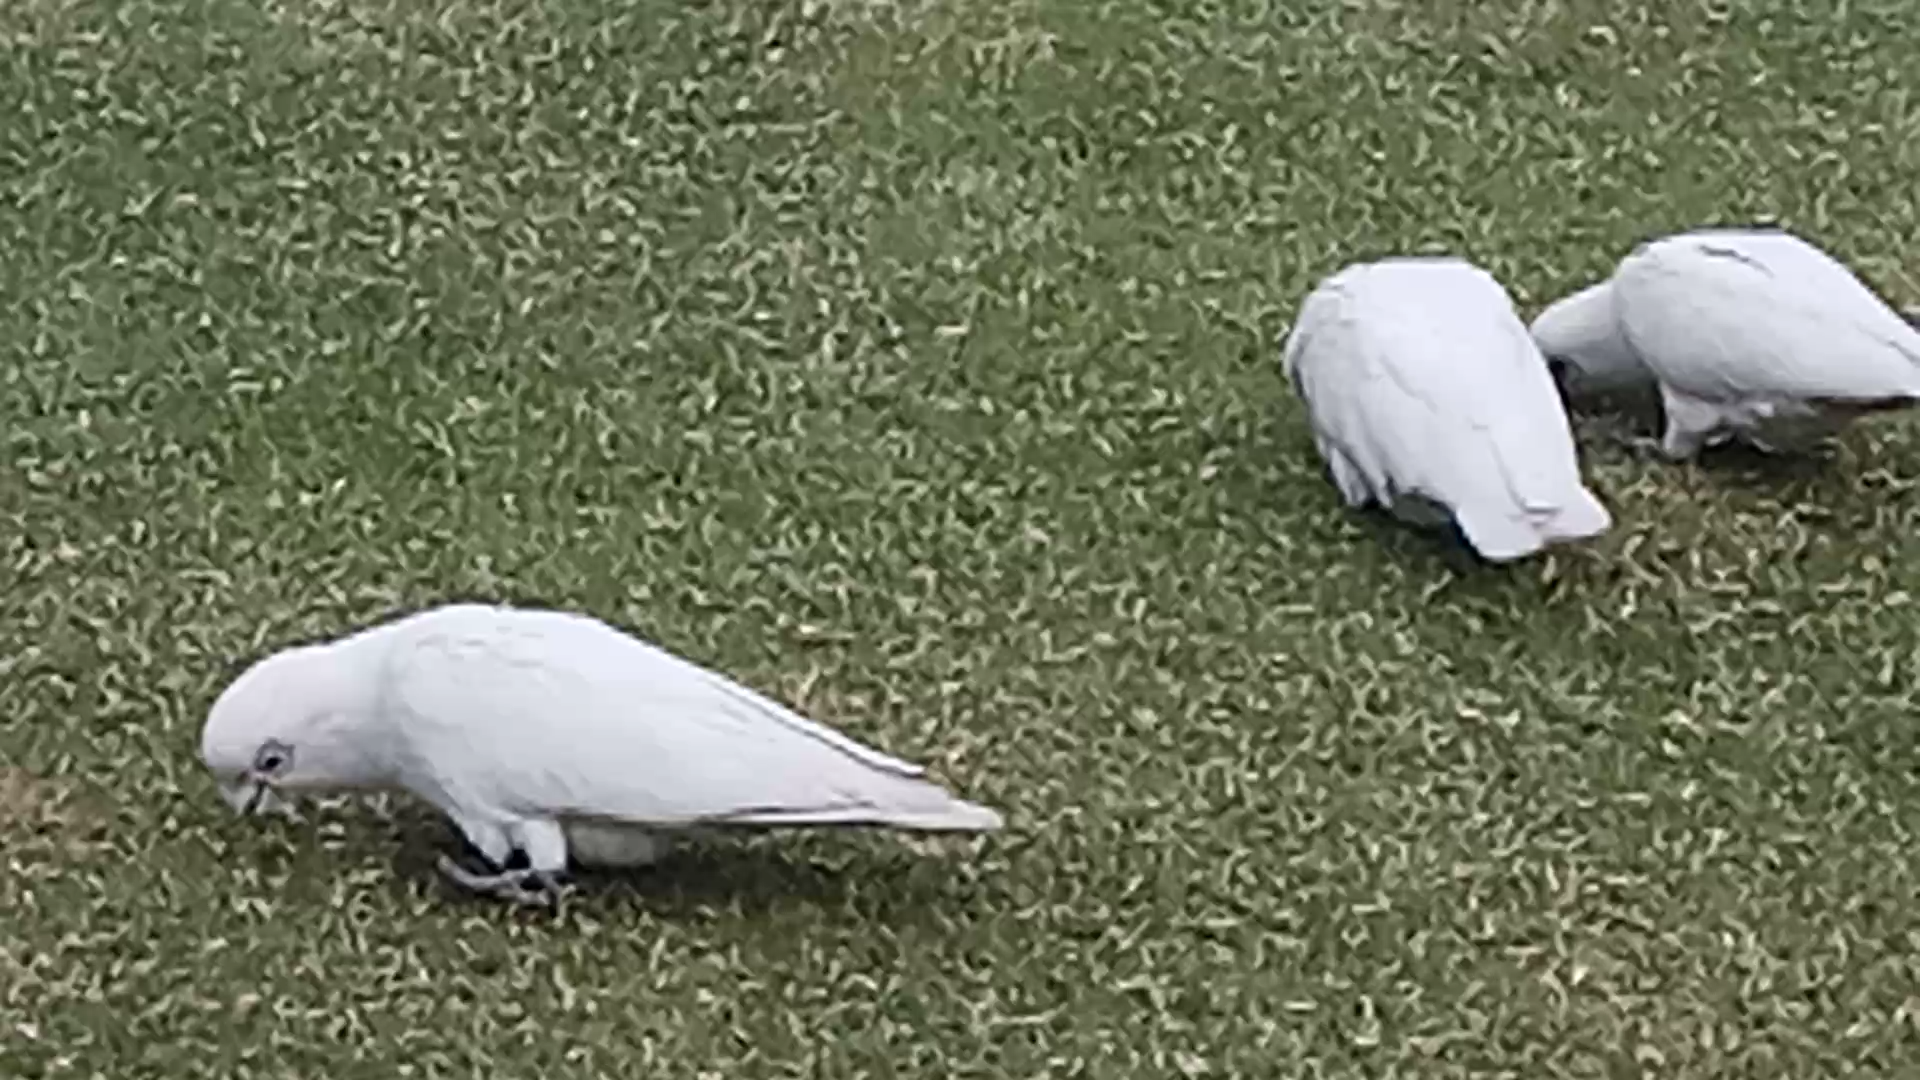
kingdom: Animalia
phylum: Chordata
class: Aves
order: Psittaciformes
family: Psittacidae
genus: Cacatua
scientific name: Cacatua sanguinea
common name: Little corella
